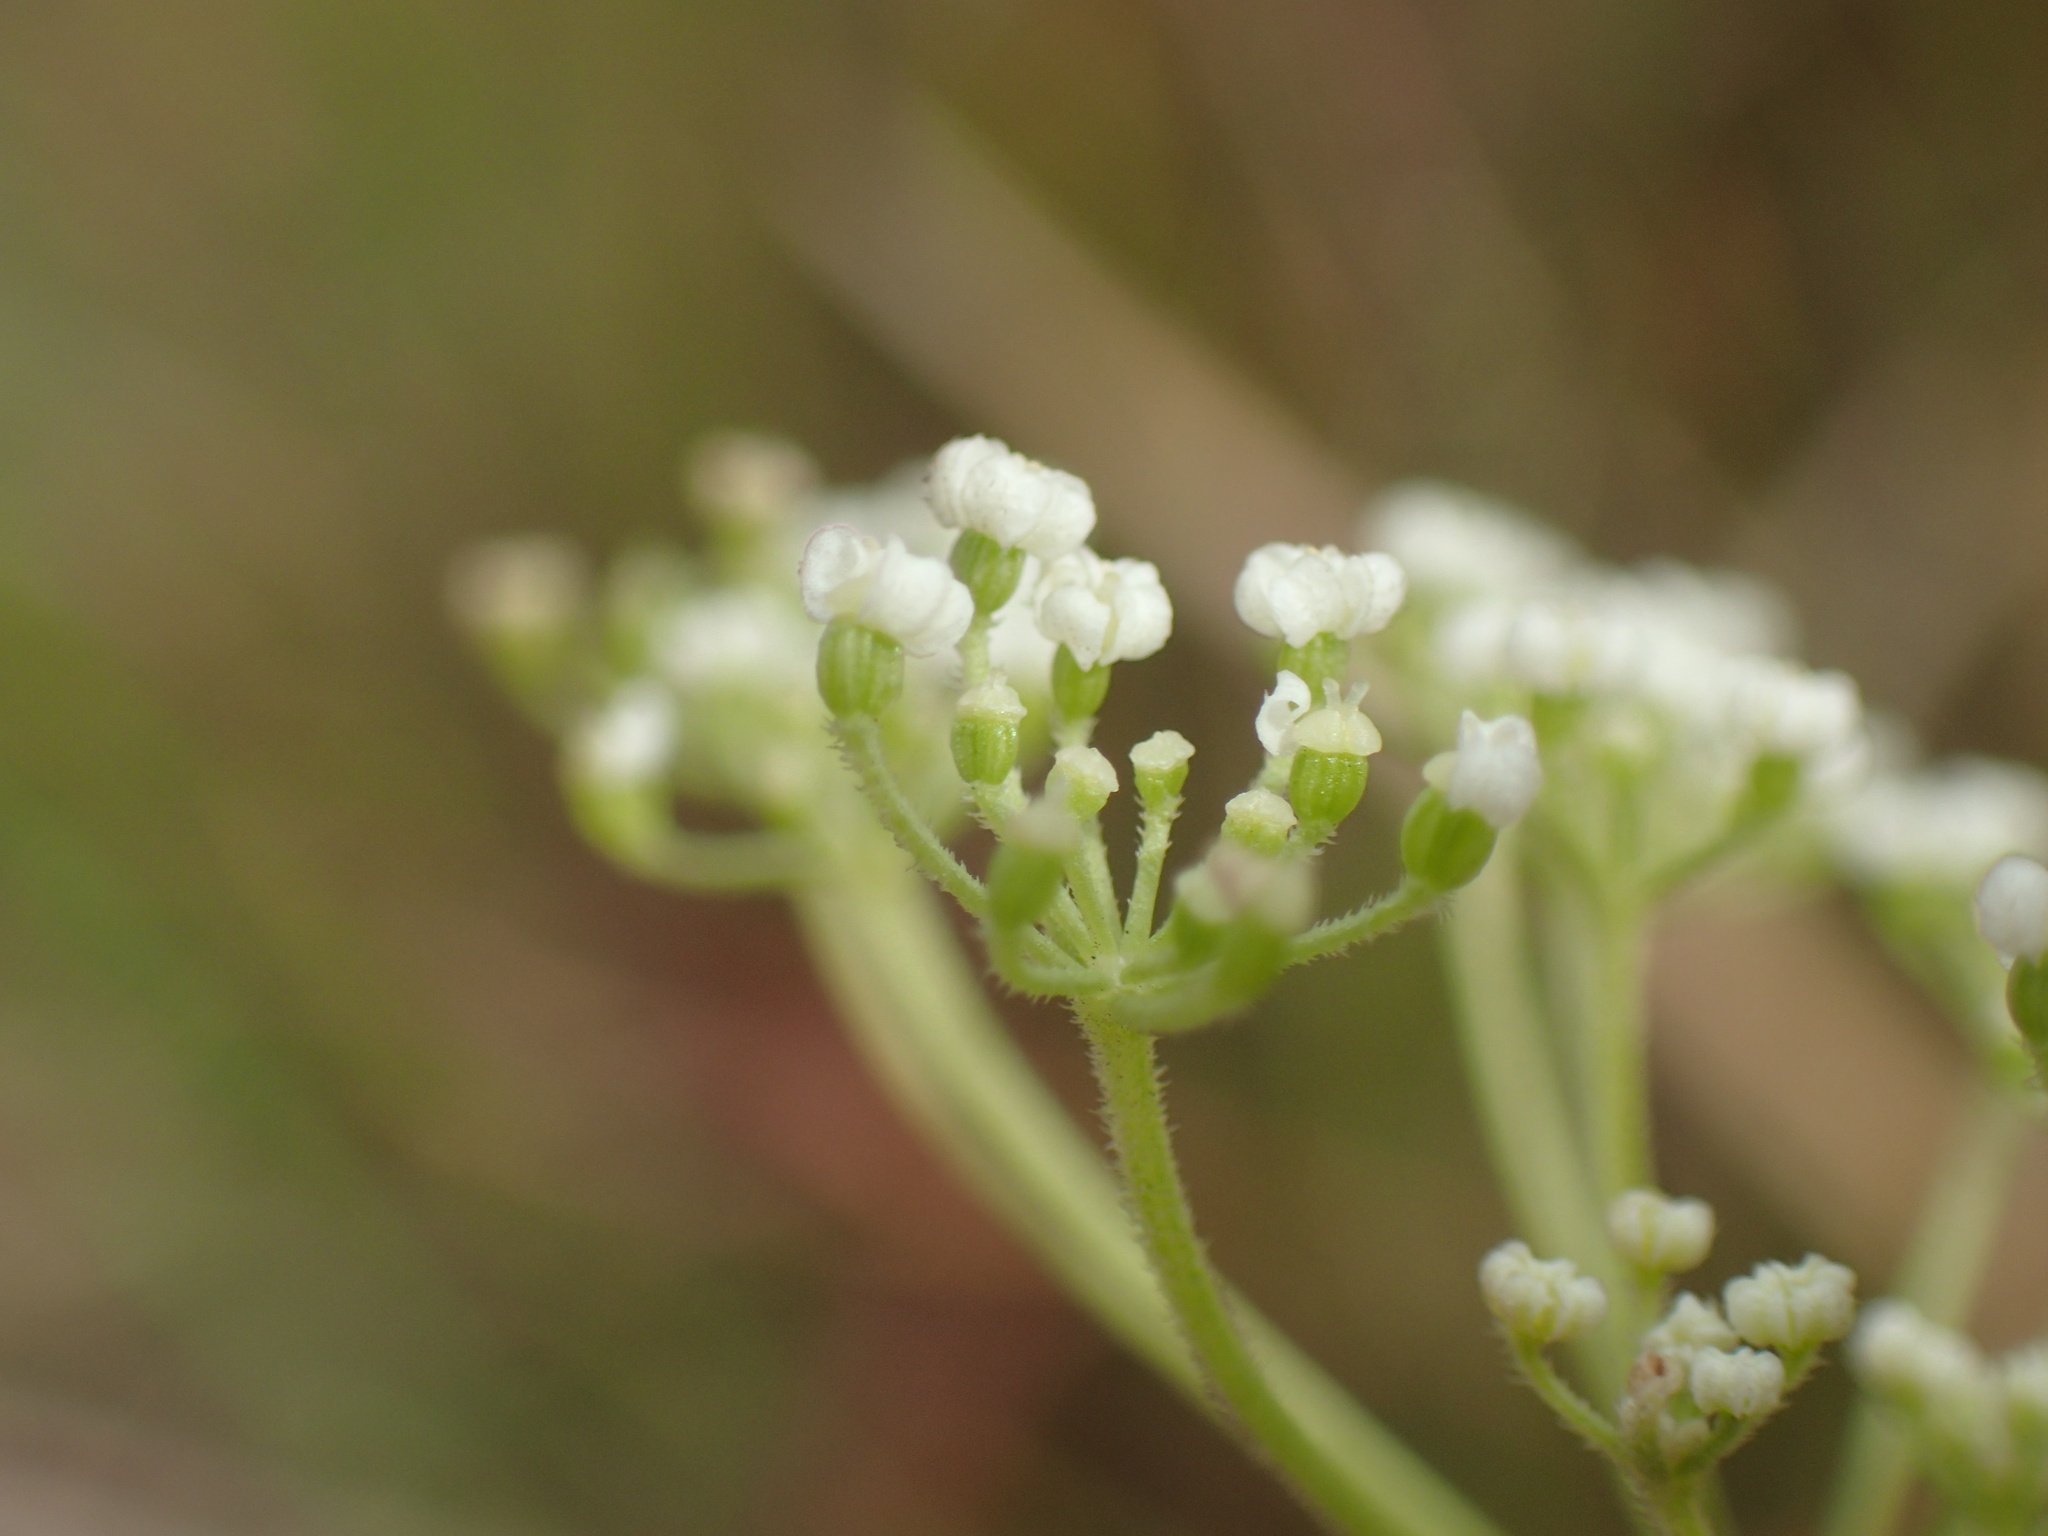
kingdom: Plantae
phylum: Tracheophyta
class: Magnoliopsida
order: Apiales
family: Apiaceae
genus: Pimpinella
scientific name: Pimpinella caffra
